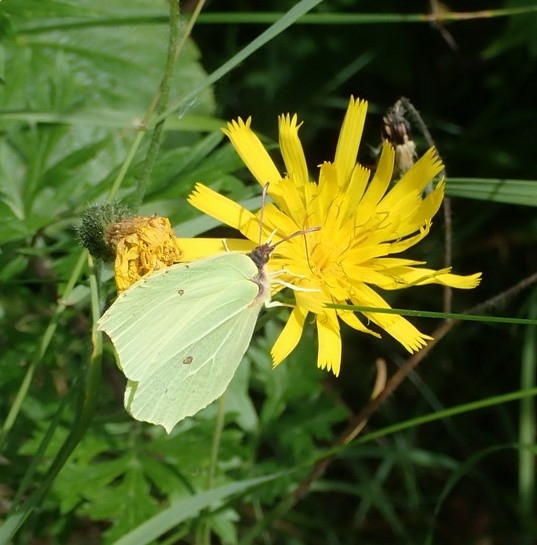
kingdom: Animalia
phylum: Arthropoda
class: Insecta
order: Lepidoptera
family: Pieridae
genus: Gonepteryx
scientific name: Gonepteryx rhamni
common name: Brimstone
